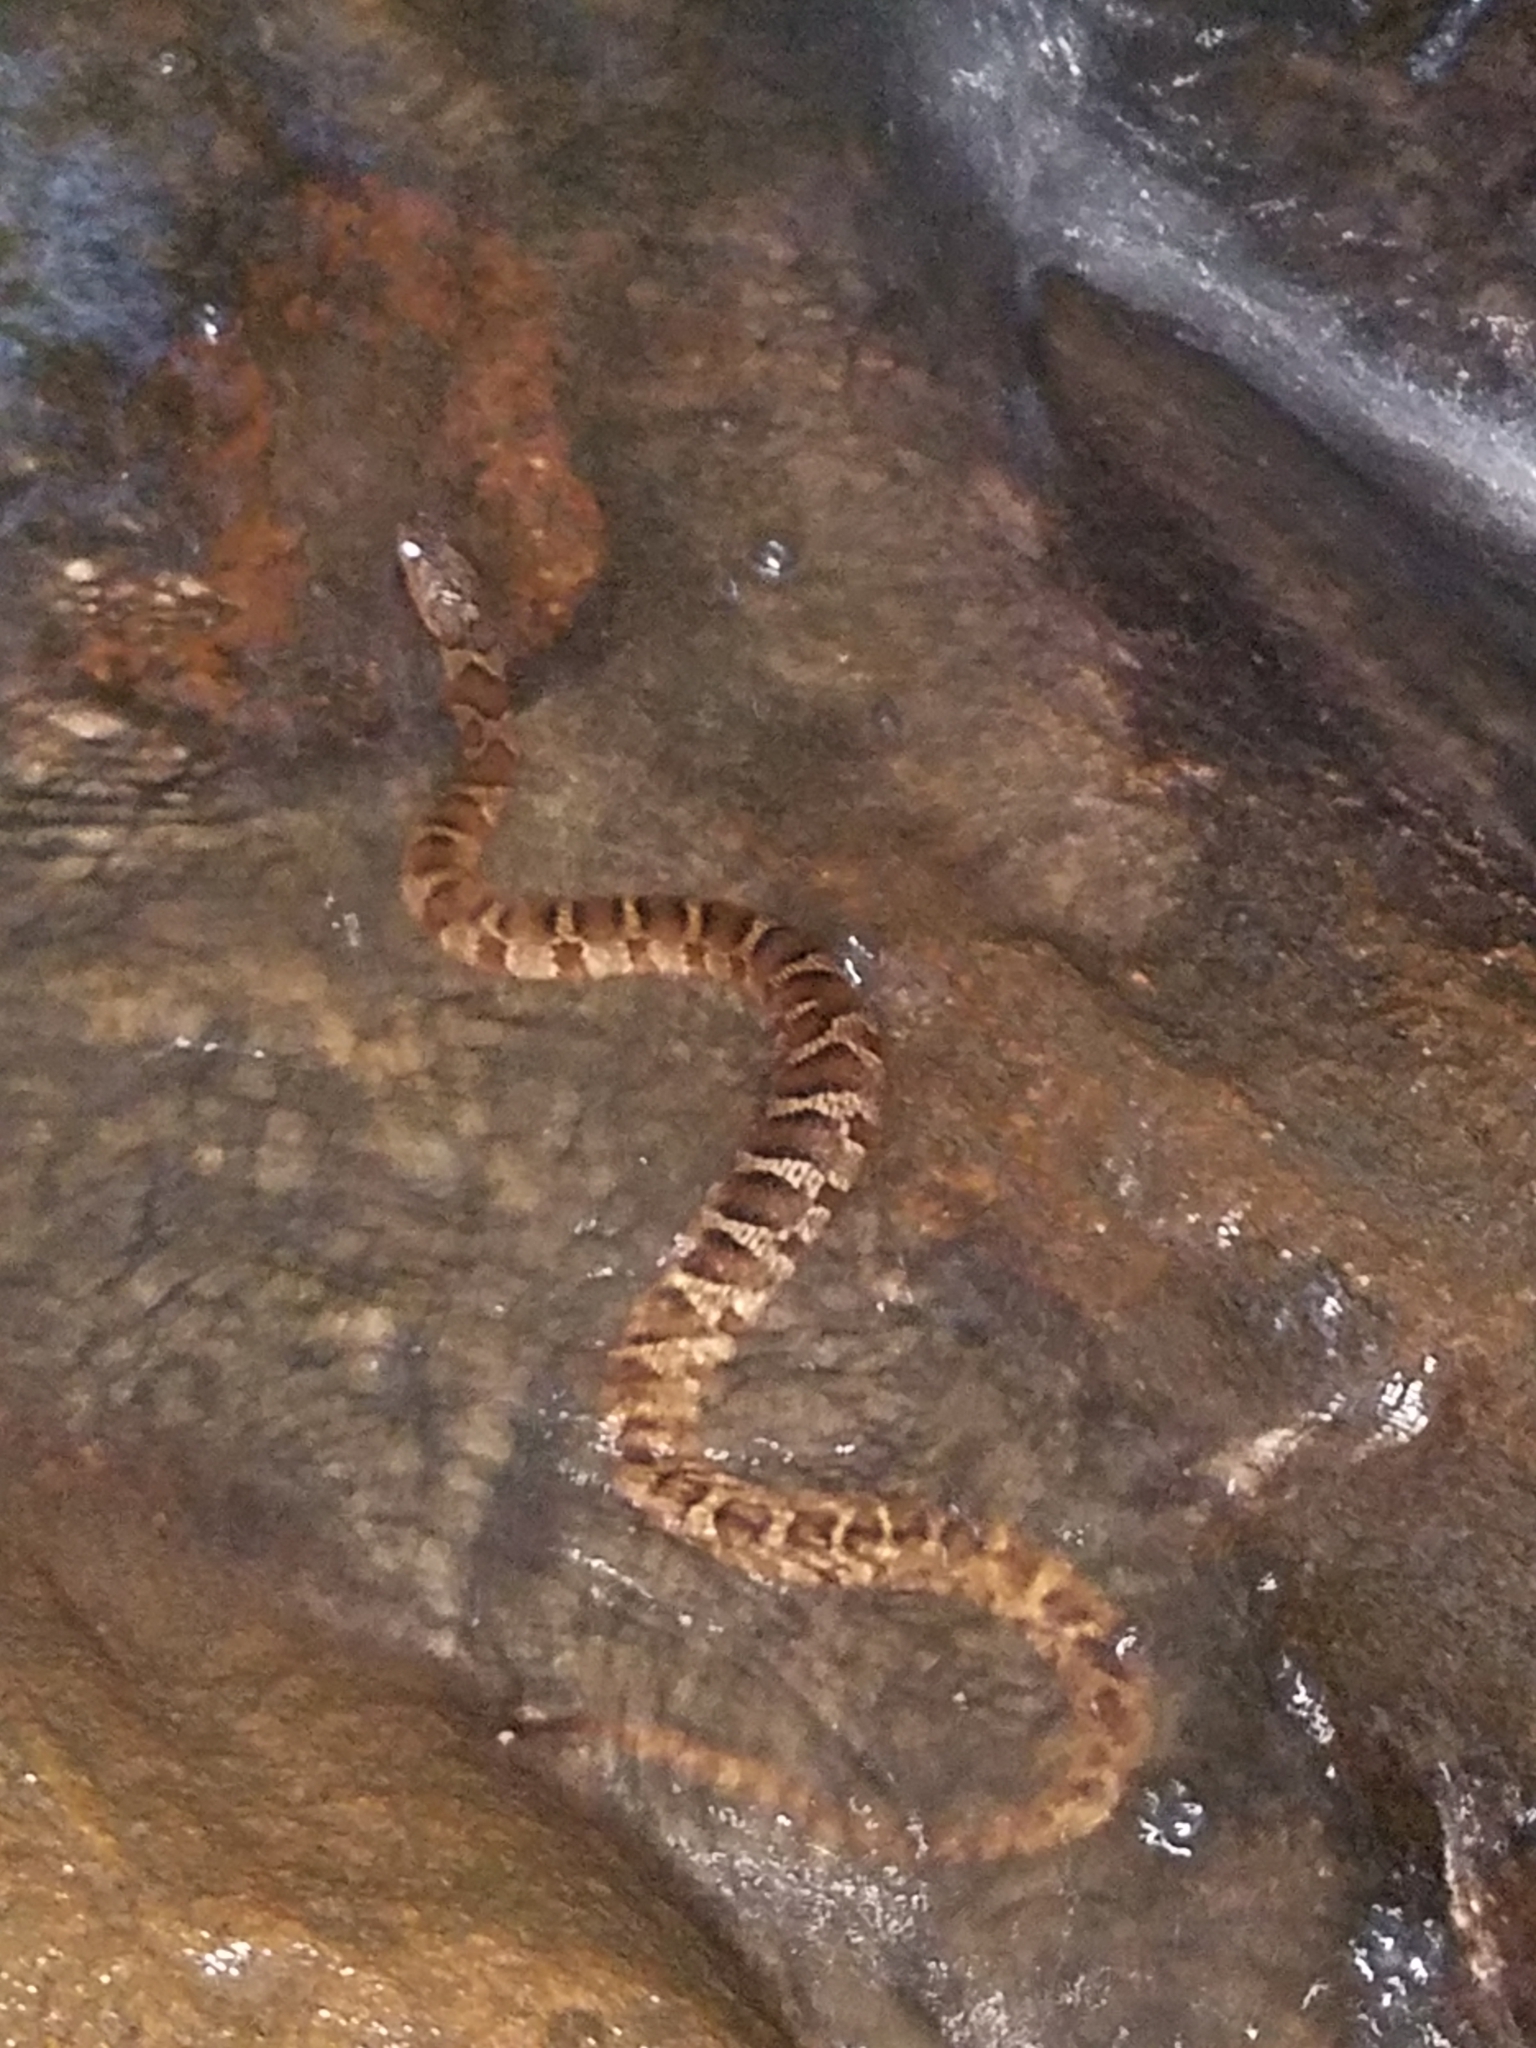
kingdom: Animalia
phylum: Chordata
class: Squamata
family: Colubridae
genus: Nerodia
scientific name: Nerodia sipedon
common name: Northern water snake
